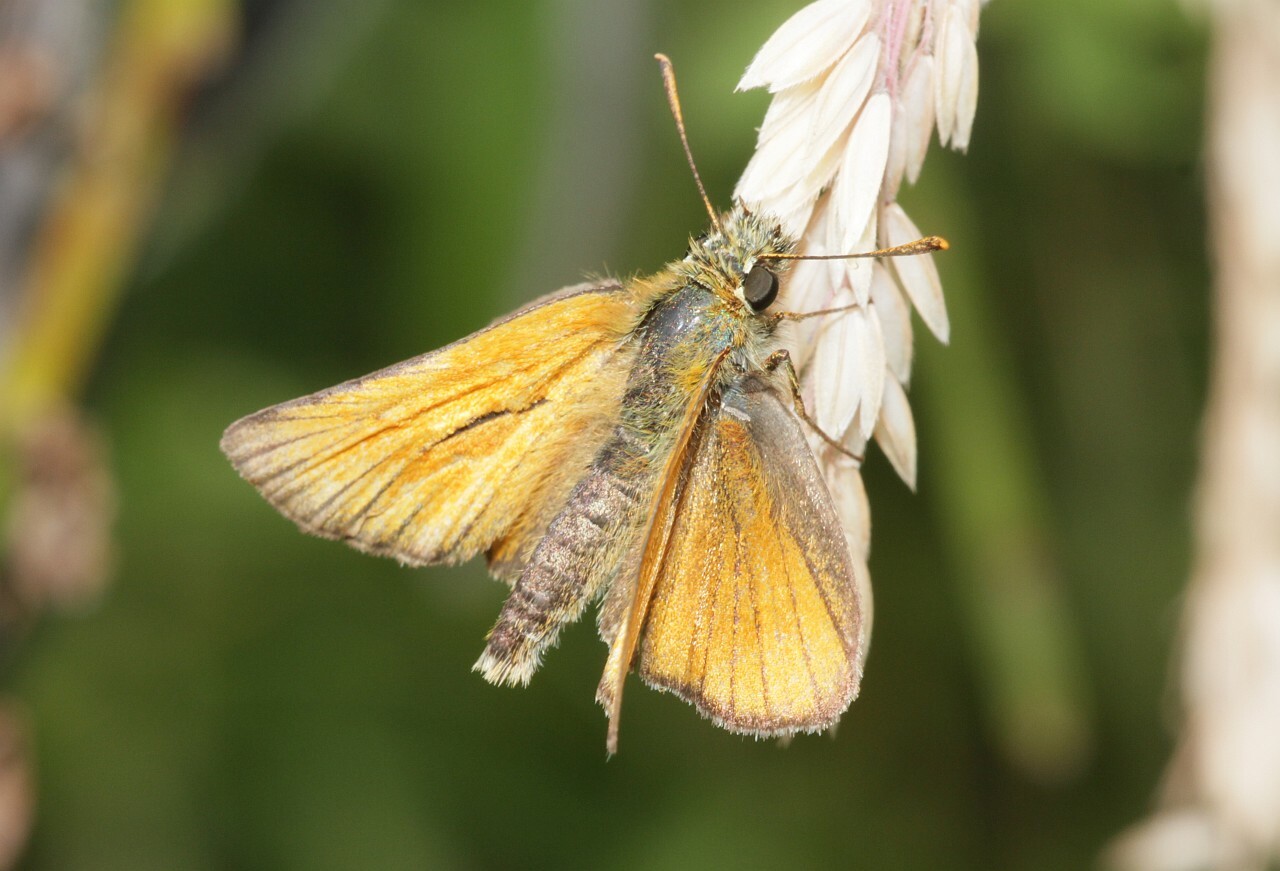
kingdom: Animalia
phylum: Arthropoda
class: Insecta
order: Lepidoptera
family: Hesperiidae
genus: Thymelicus
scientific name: Thymelicus sylvestris
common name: Small skipper
